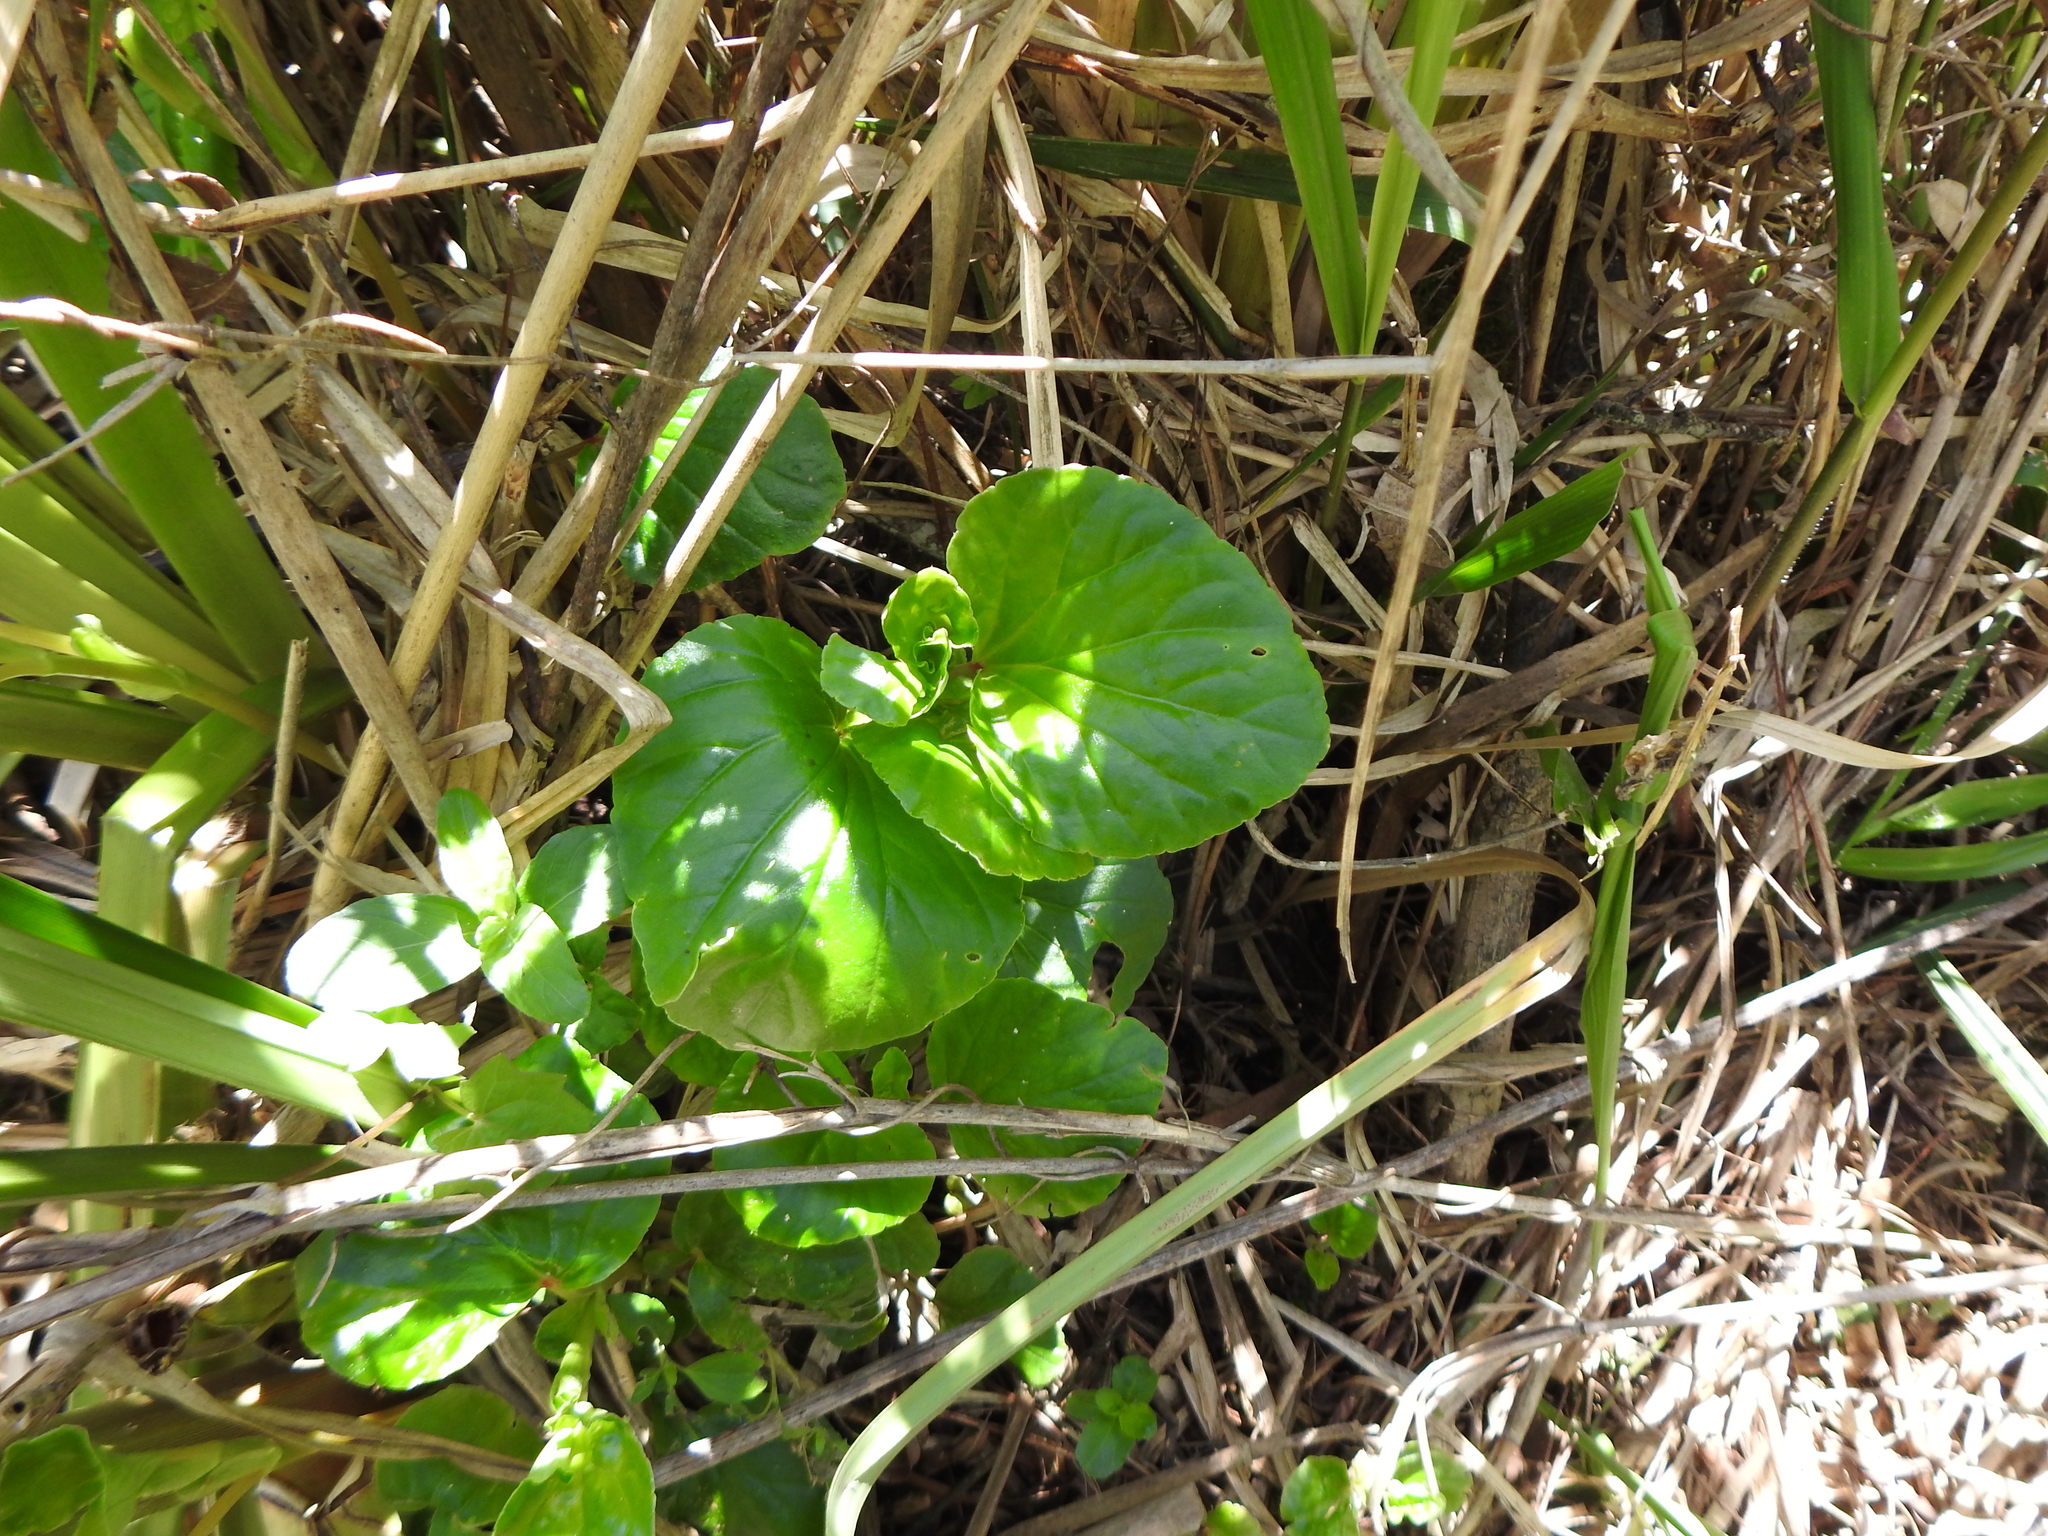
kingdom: Plantae
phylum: Tracheophyta
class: Magnoliopsida
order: Cucurbitales
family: Begoniaceae
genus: Begonia
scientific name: Begonia cucullata
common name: Clubbed begonia
